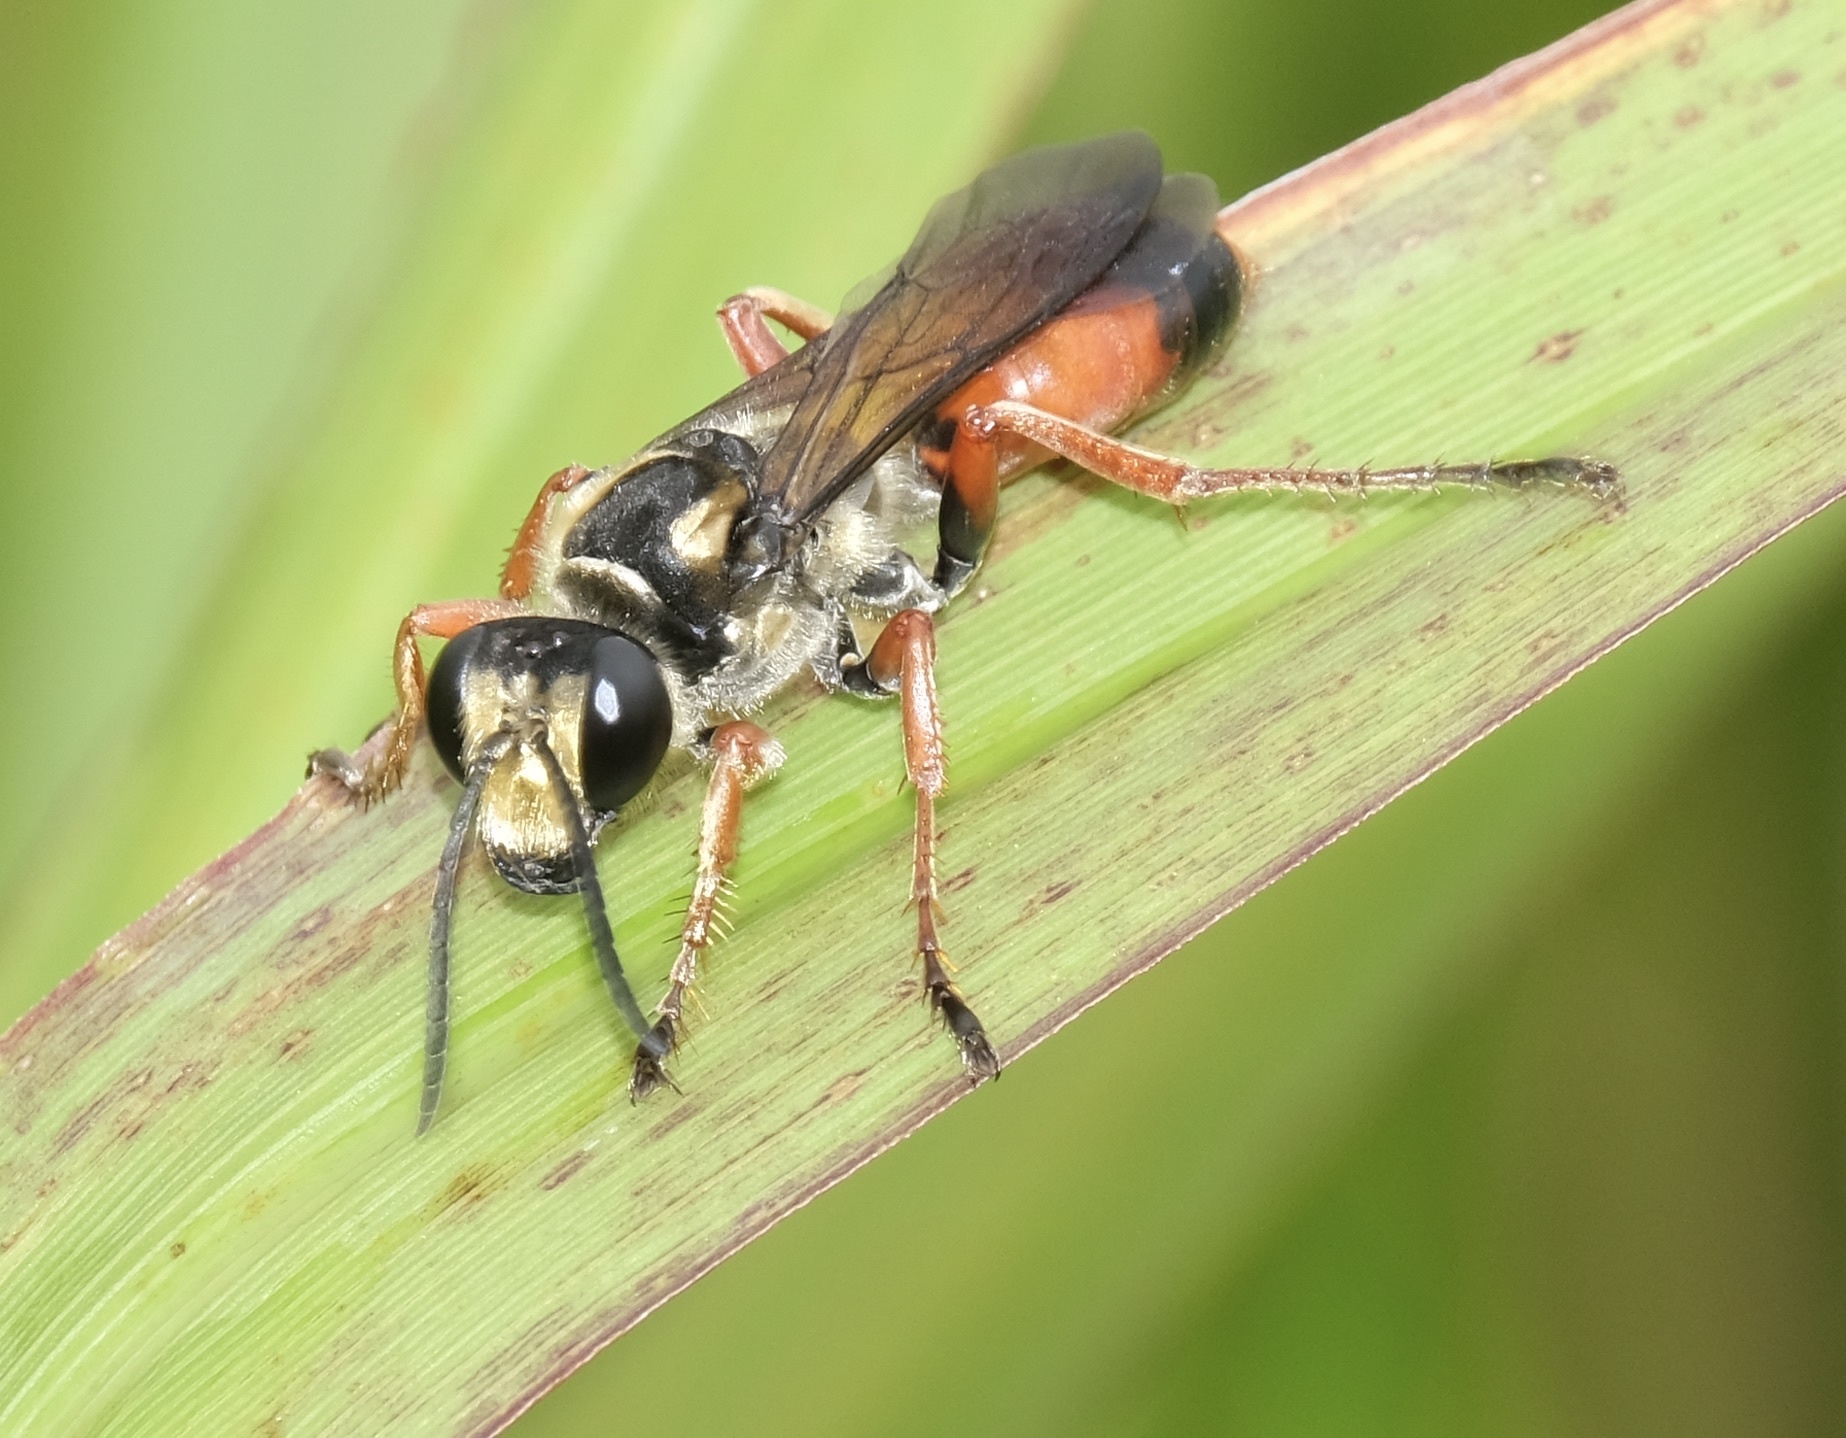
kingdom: Animalia
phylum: Arthropoda
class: Insecta
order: Hymenoptera
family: Sphecidae
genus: Sphex
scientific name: Sphex dorsalis
